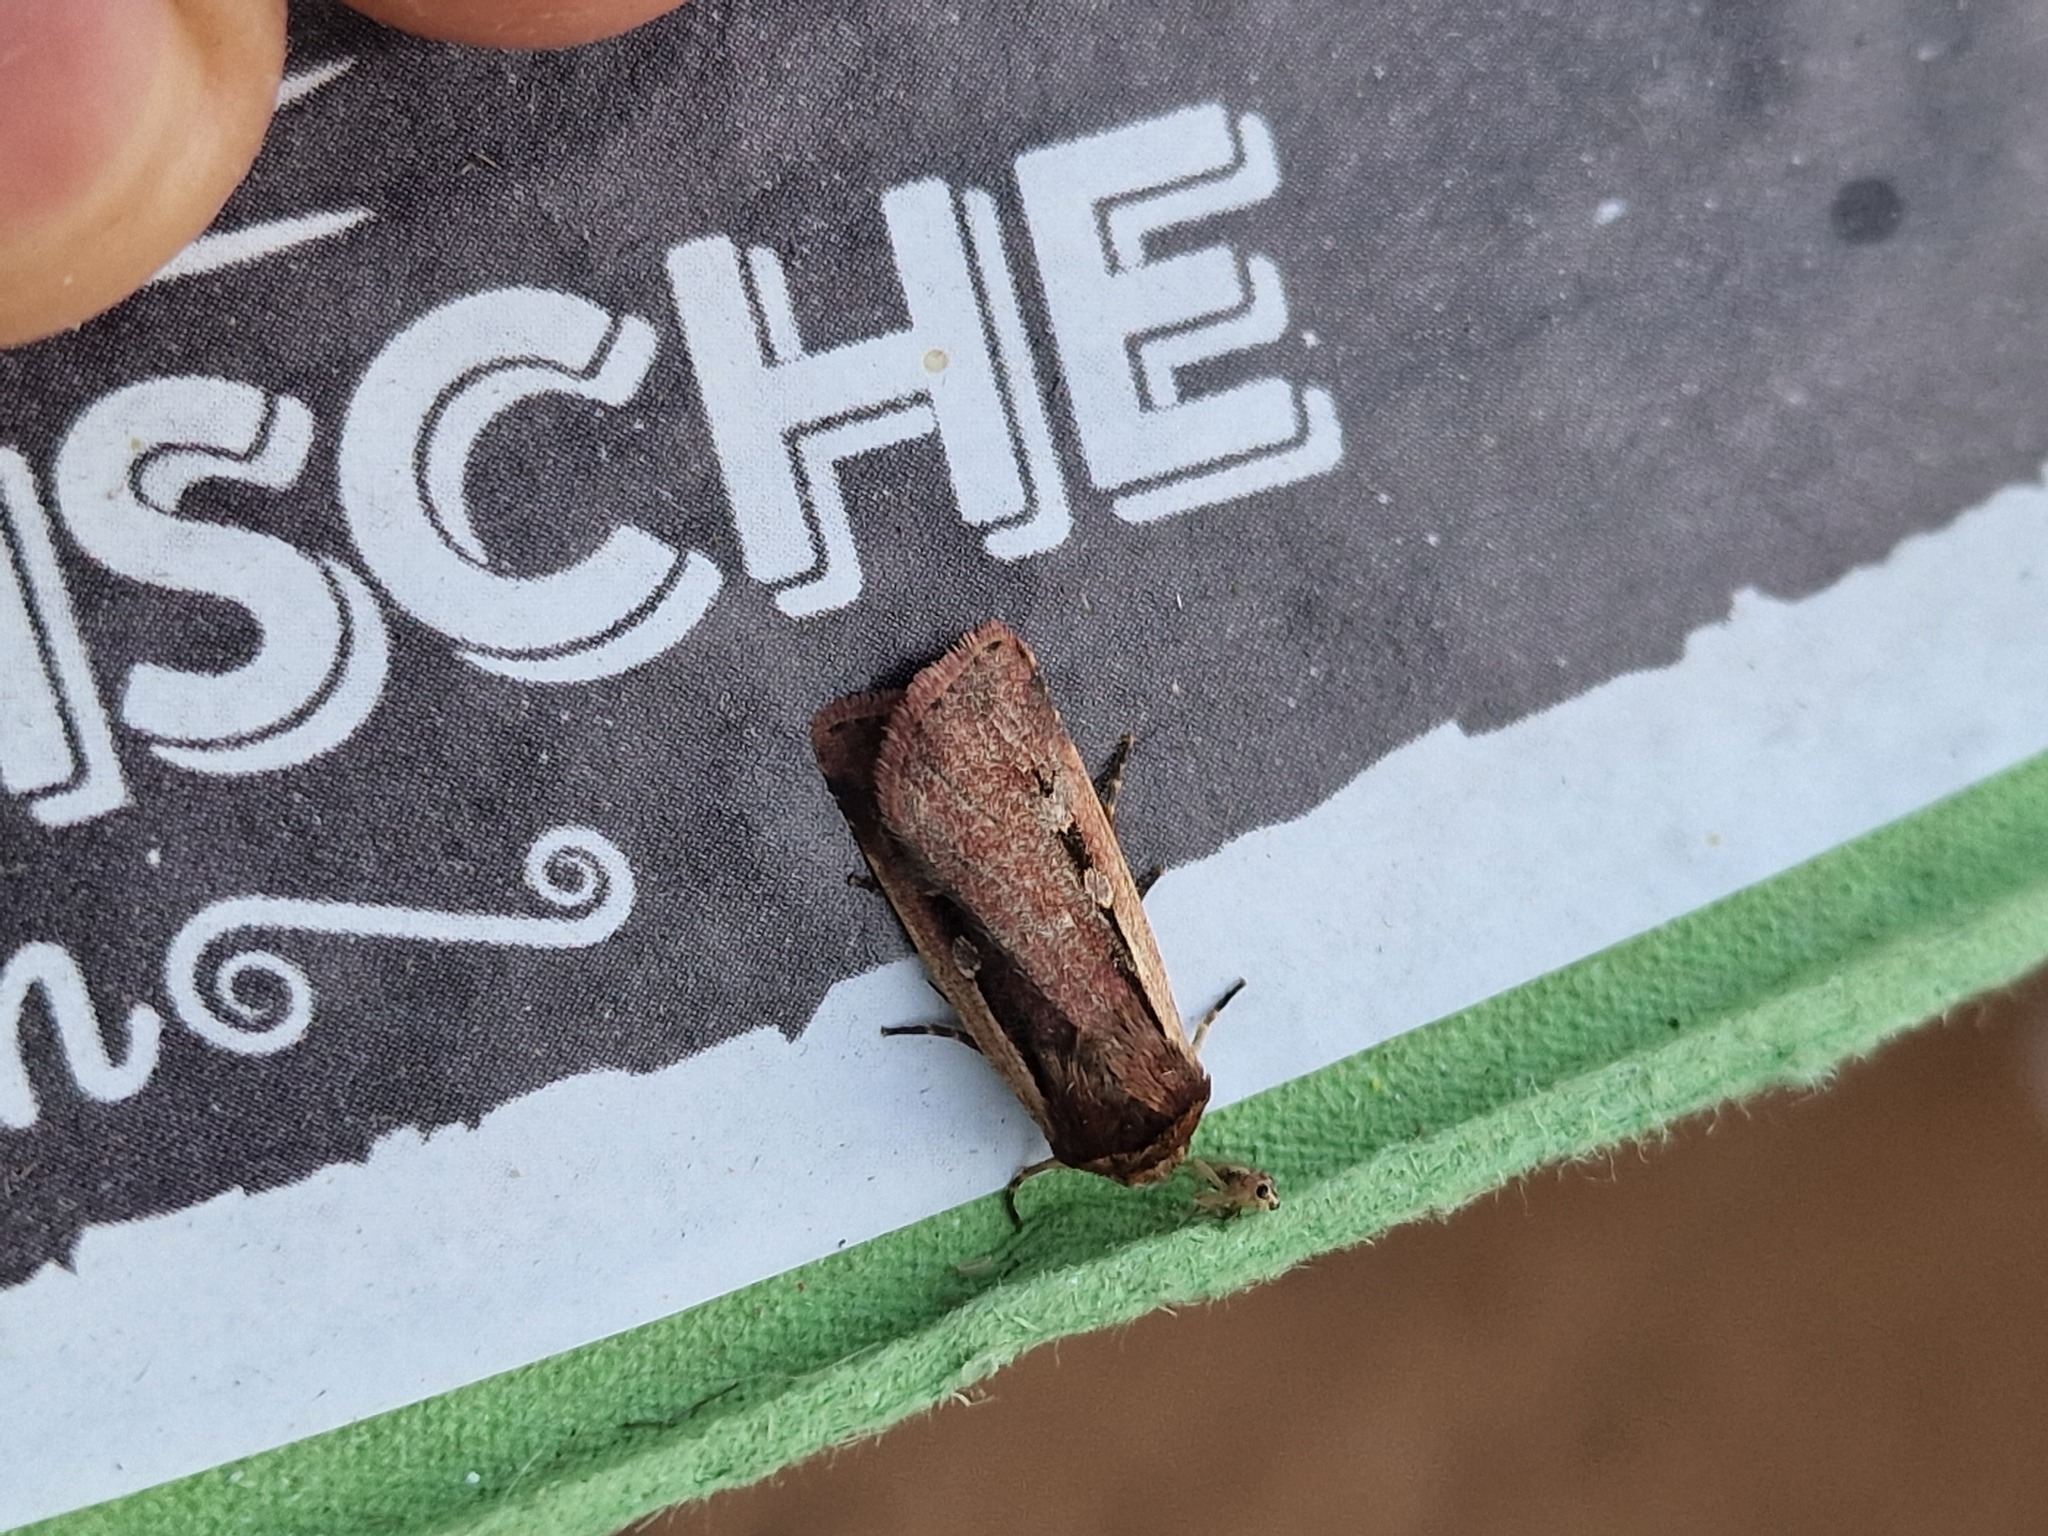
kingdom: Animalia
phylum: Arthropoda
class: Insecta
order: Lepidoptera
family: Noctuidae
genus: Ochropleura
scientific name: Ochropleura plecta
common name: Flame shoulder
